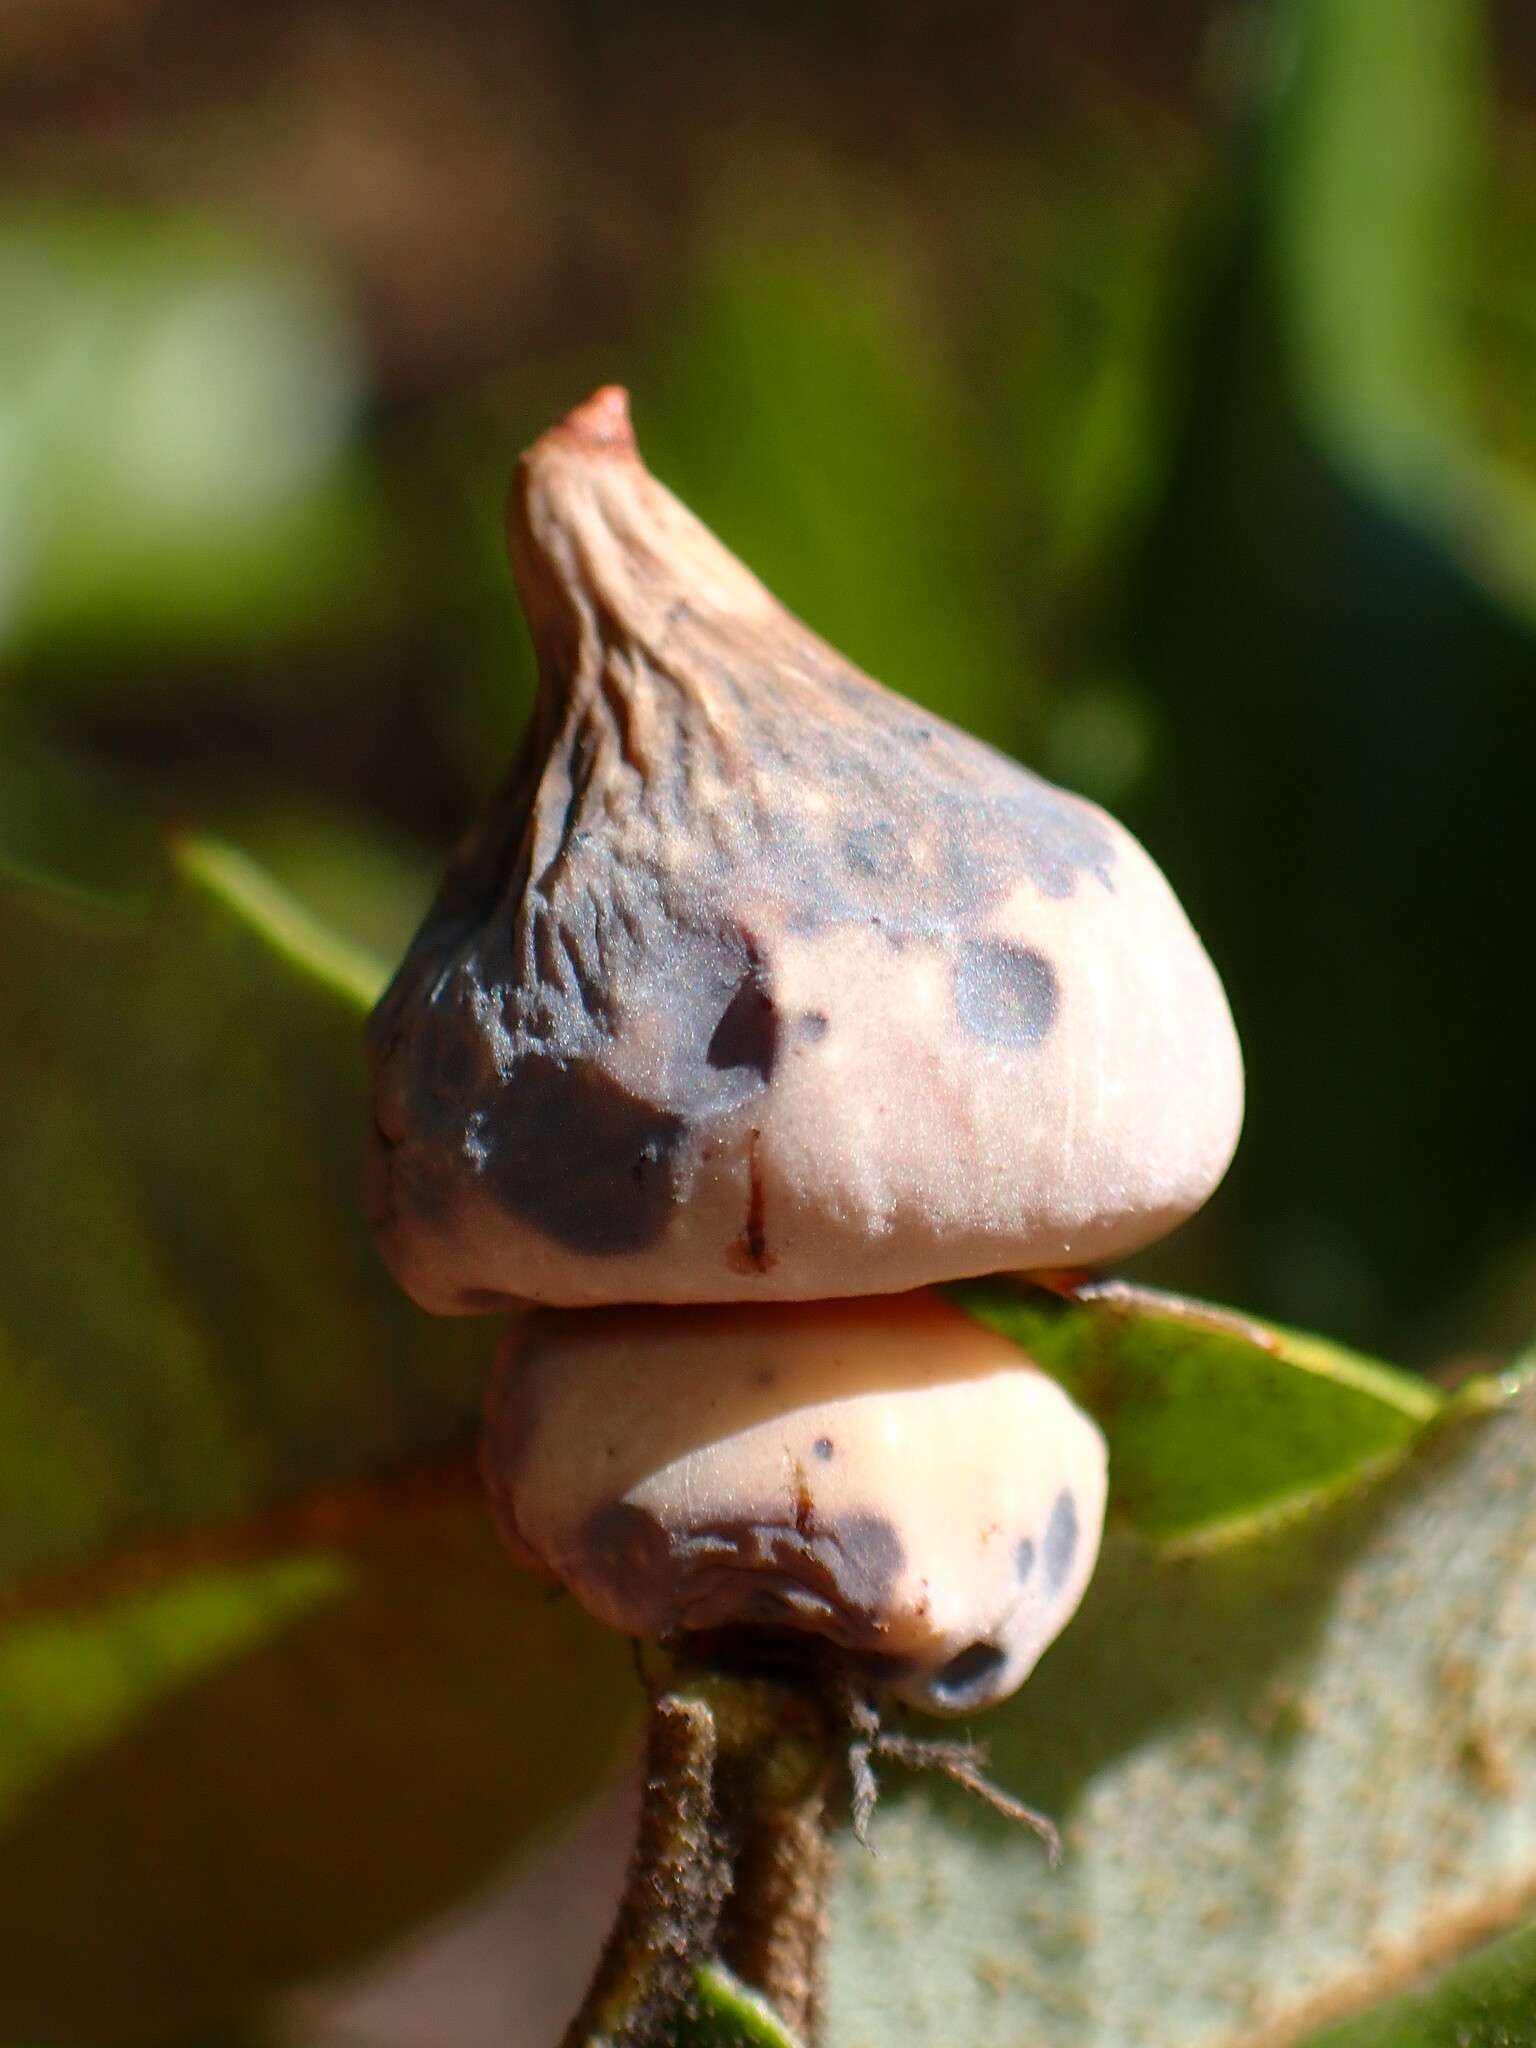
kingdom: Animalia
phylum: Arthropoda
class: Insecta
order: Hymenoptera
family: Cynipidae
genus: Heteroecus
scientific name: Heteroecus
